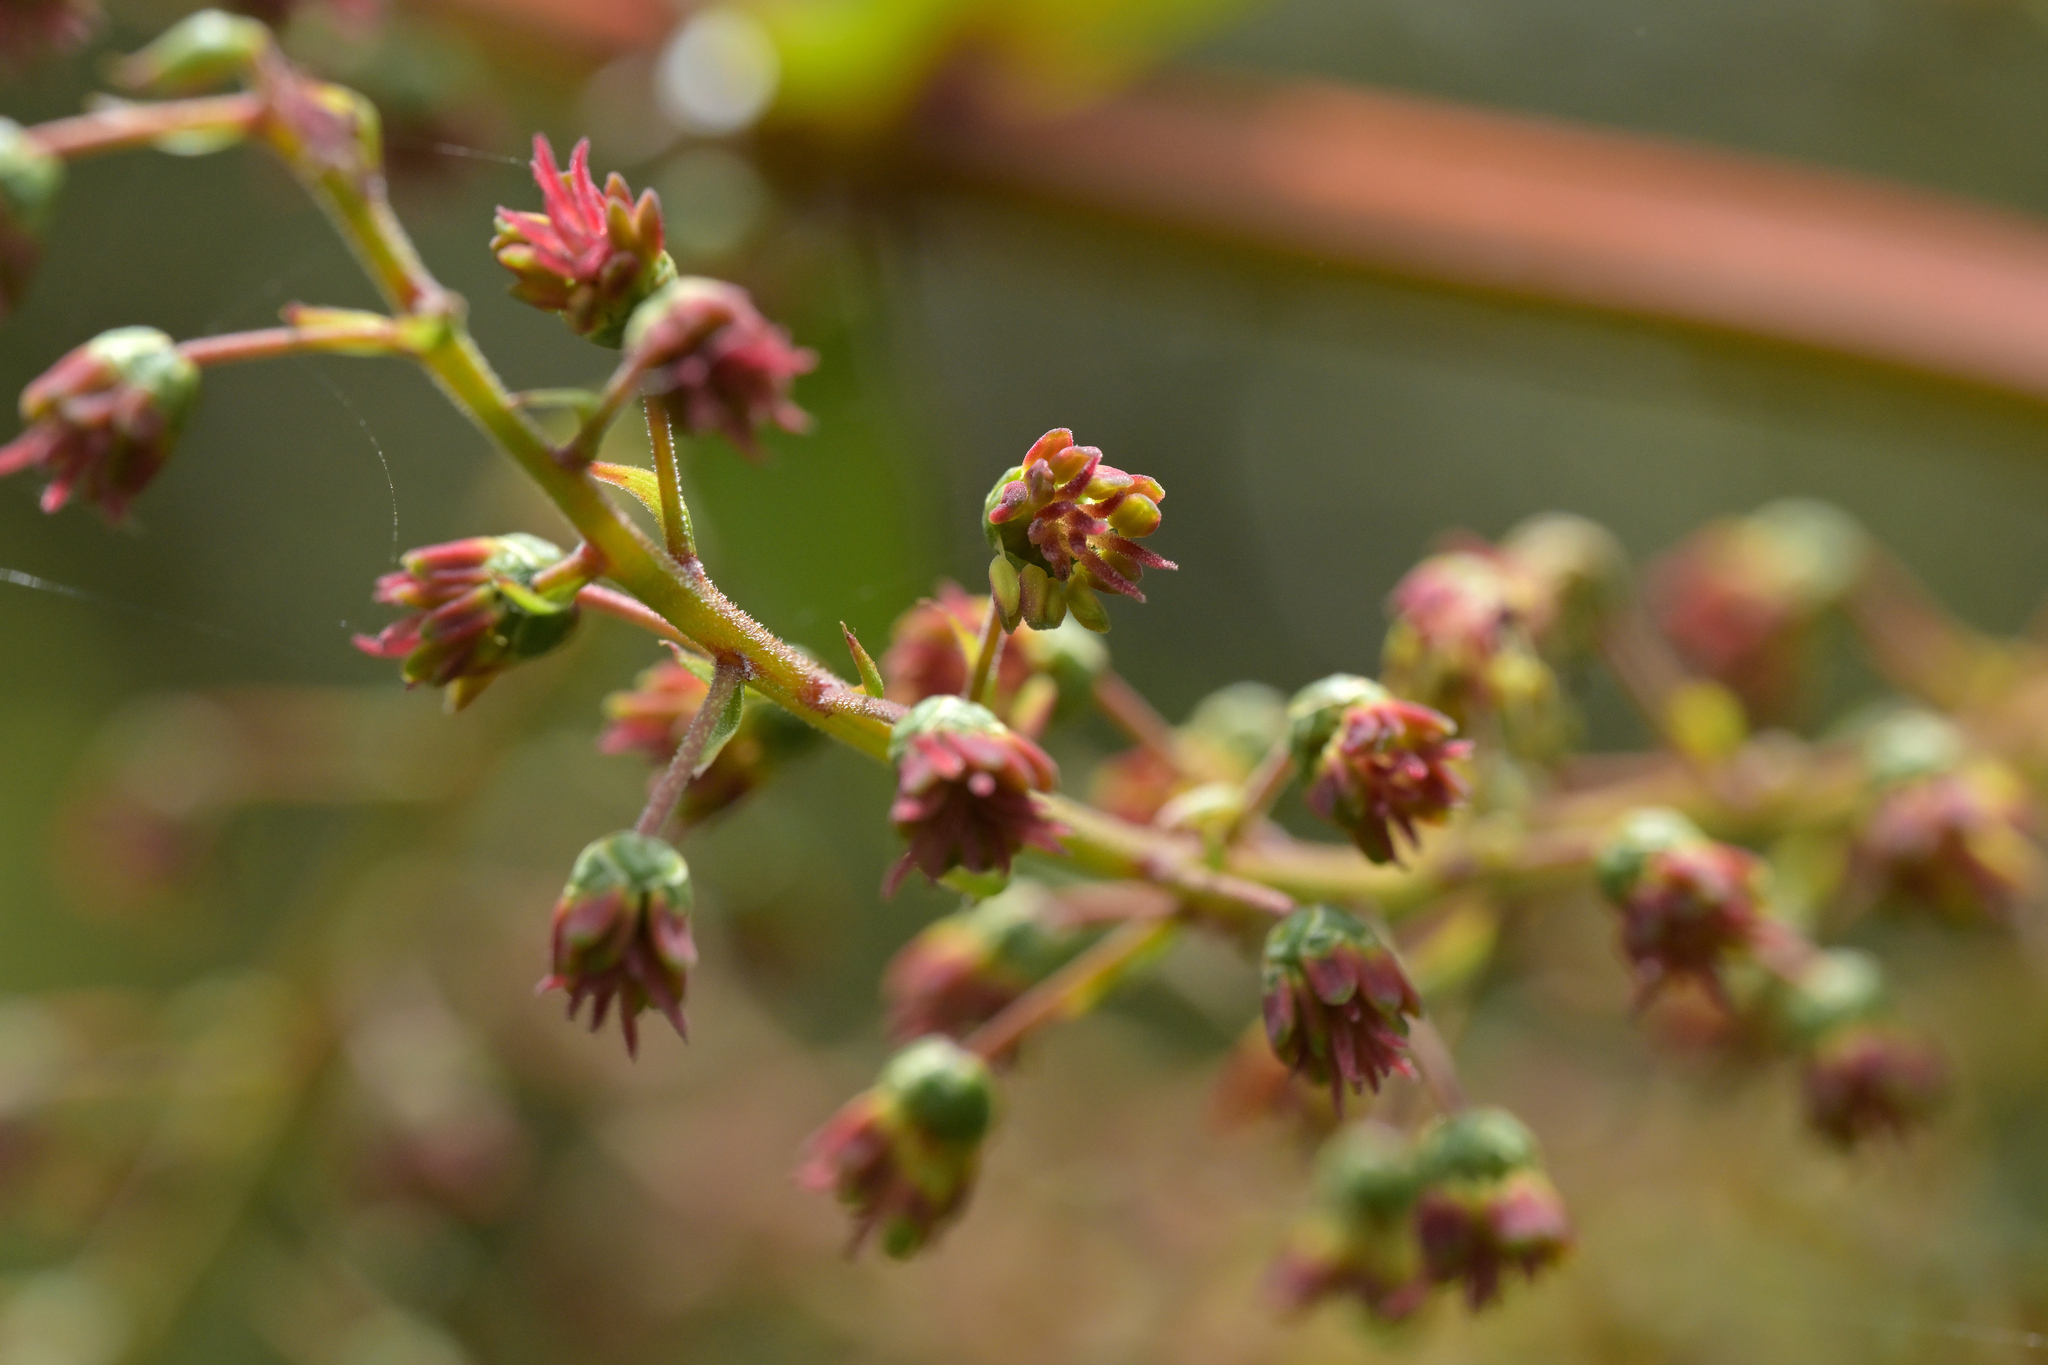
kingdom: Plantae
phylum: Tracheophyta
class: Magnoliopsida
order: Cucurbitales
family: Coriariaceae
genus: Coriaria
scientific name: Coriaria sarmentosa
